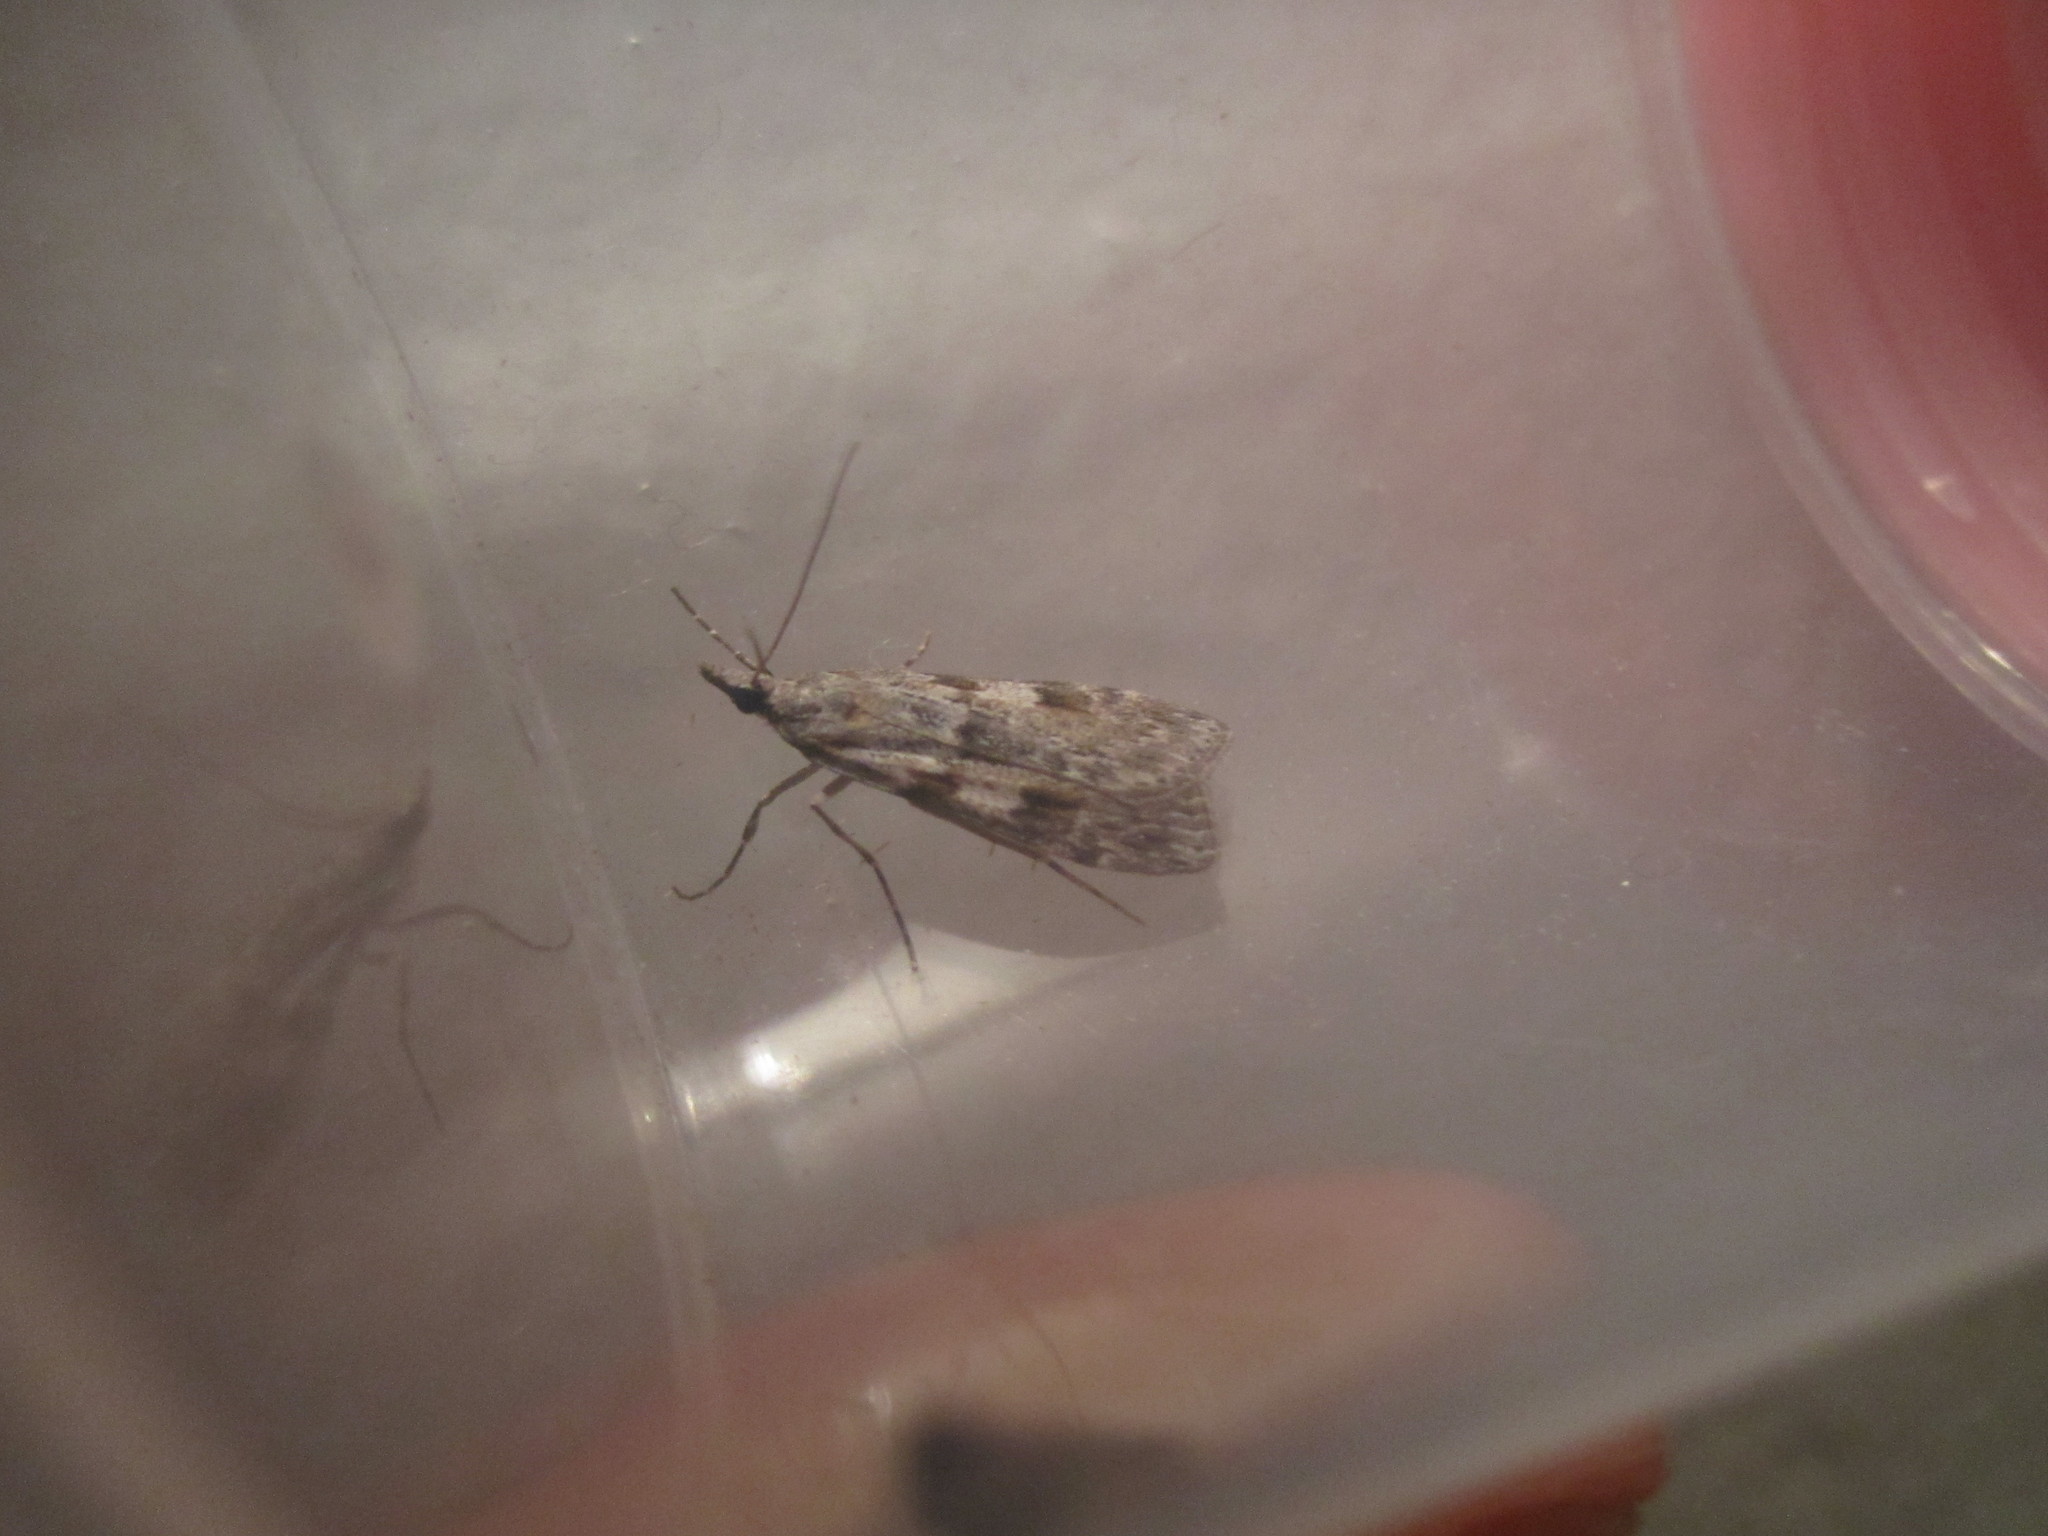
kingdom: Animalia
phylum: Arthropoda
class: Insecta
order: Lepidoptera
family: Crambidae
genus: Scoparia
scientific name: Scoparia halopis
